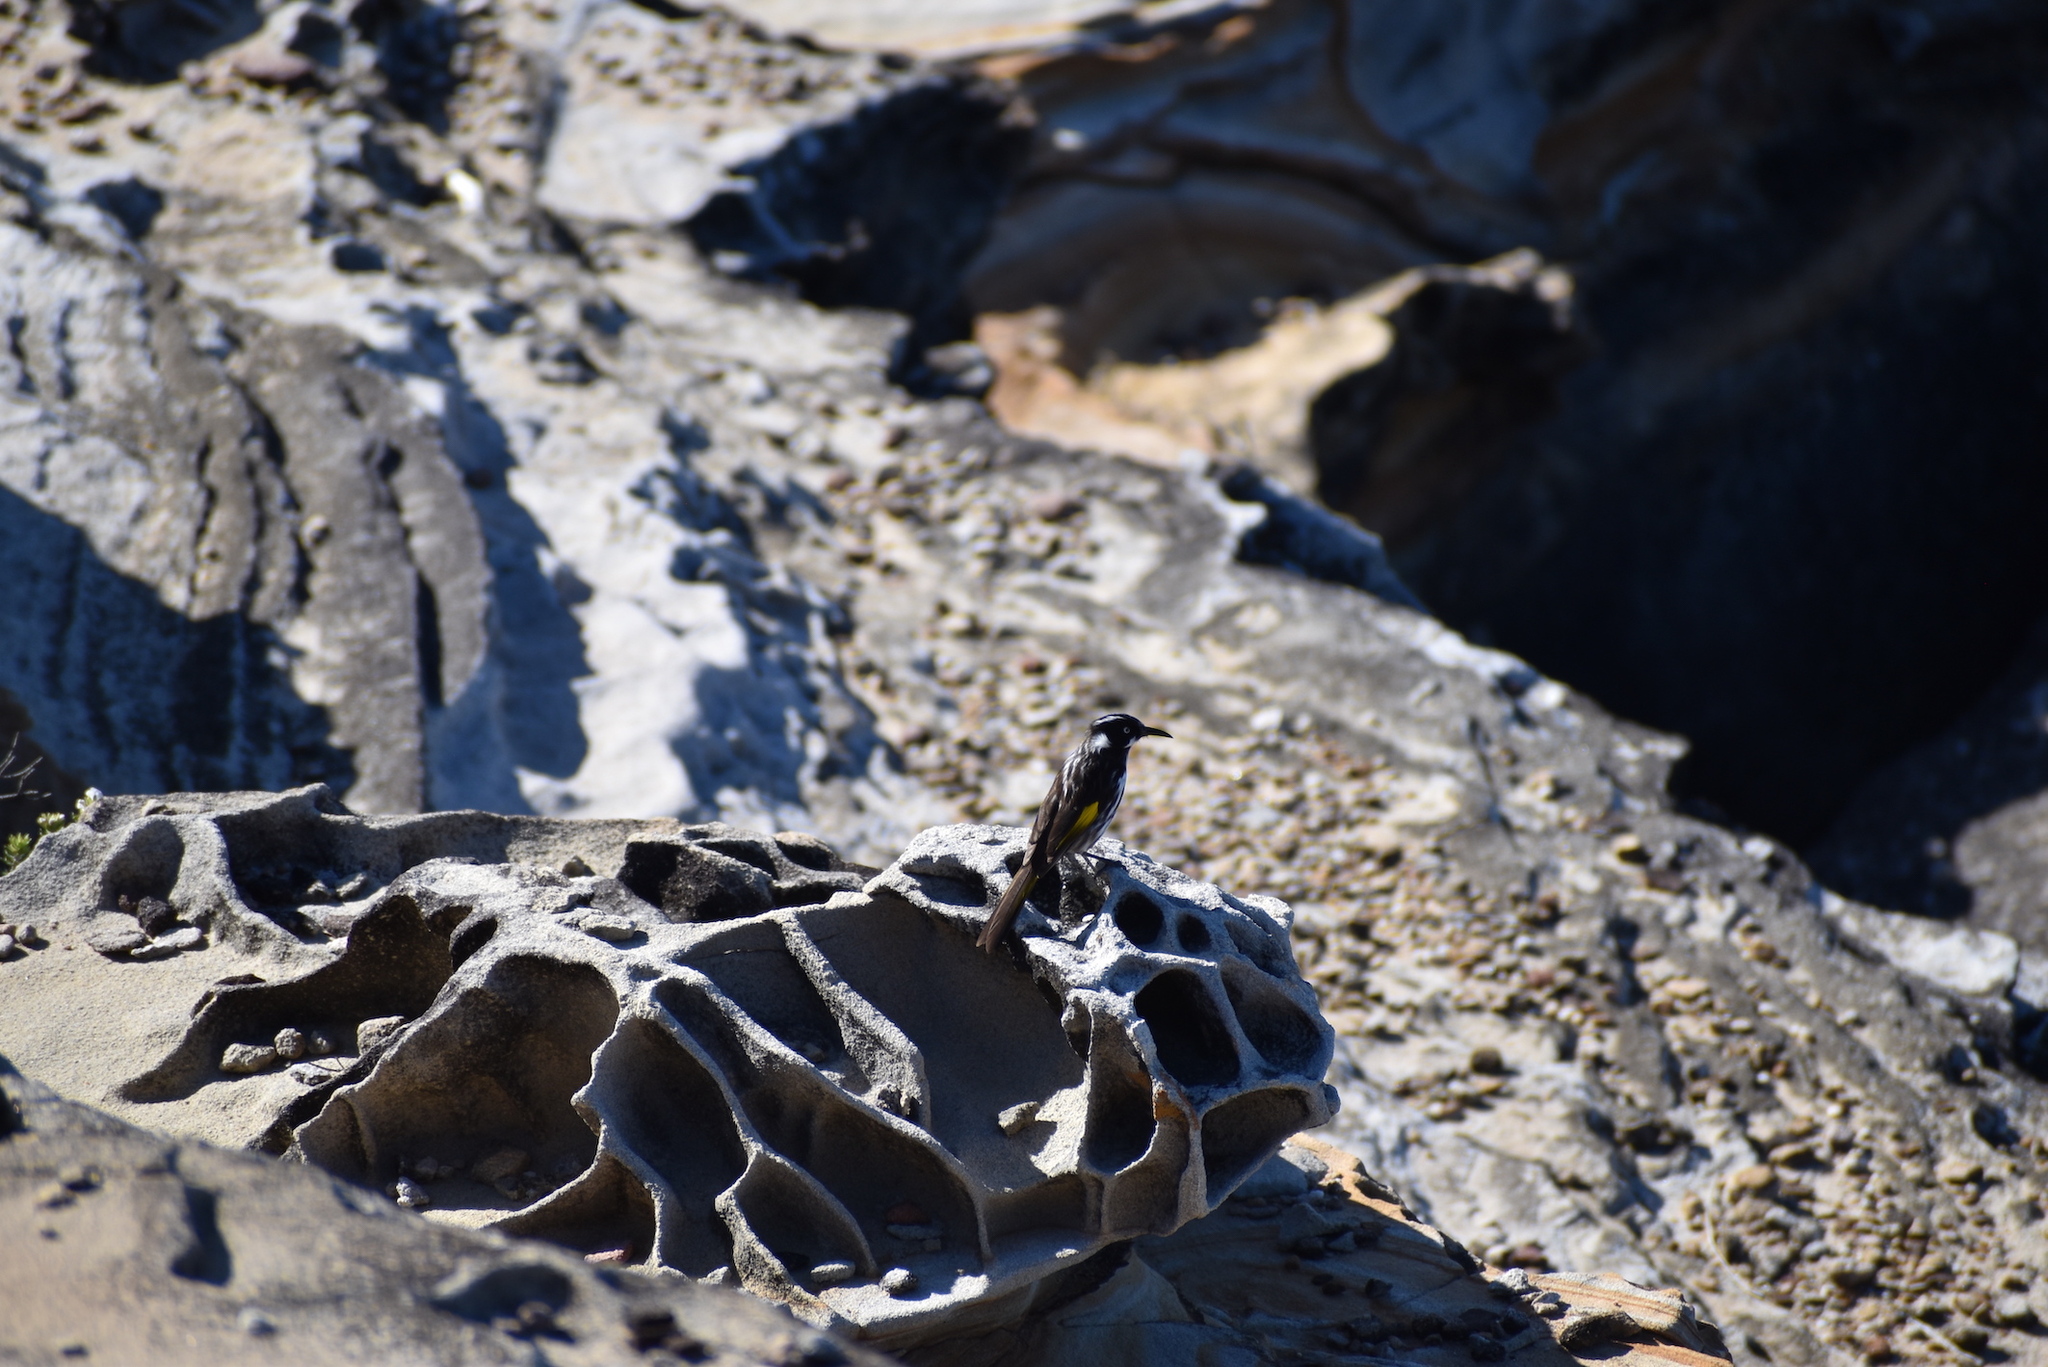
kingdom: Animalia
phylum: Chordata
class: Aves
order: Passeriformes
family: Meliphagidae
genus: Phylidonyris
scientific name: Phylidonyris novaehollandiae
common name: New holland honeyeater
